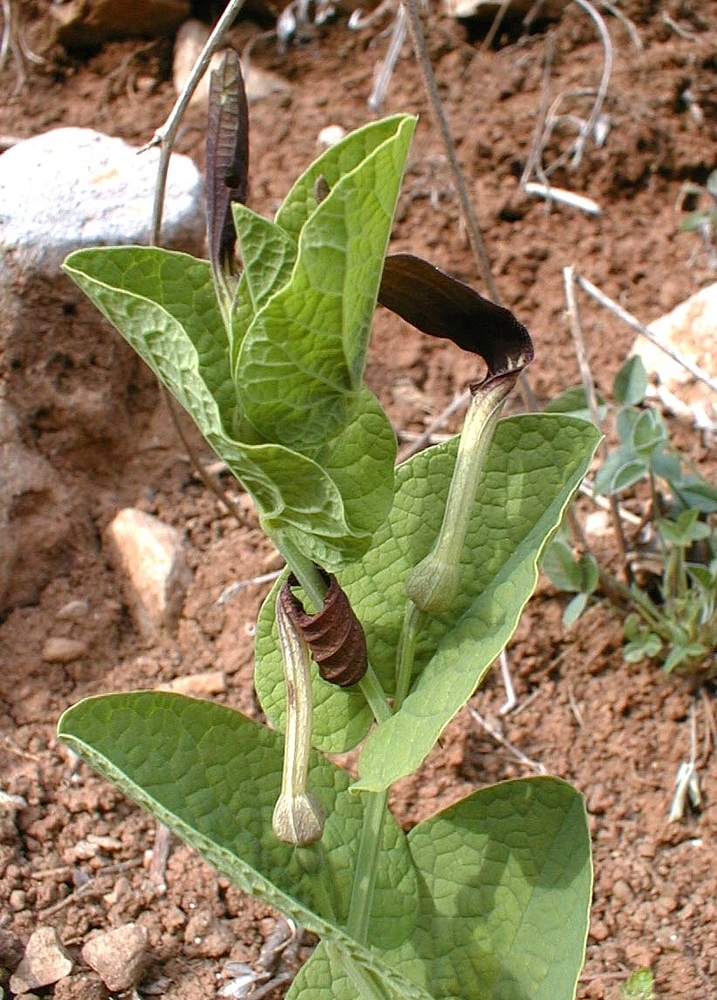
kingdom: Plantae
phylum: Tracheophyta
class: Magnoliopsida
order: Piperales
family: Aristolochiaceae
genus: Aristolochia
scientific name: Aristolochia rotunda
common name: Smearwort
